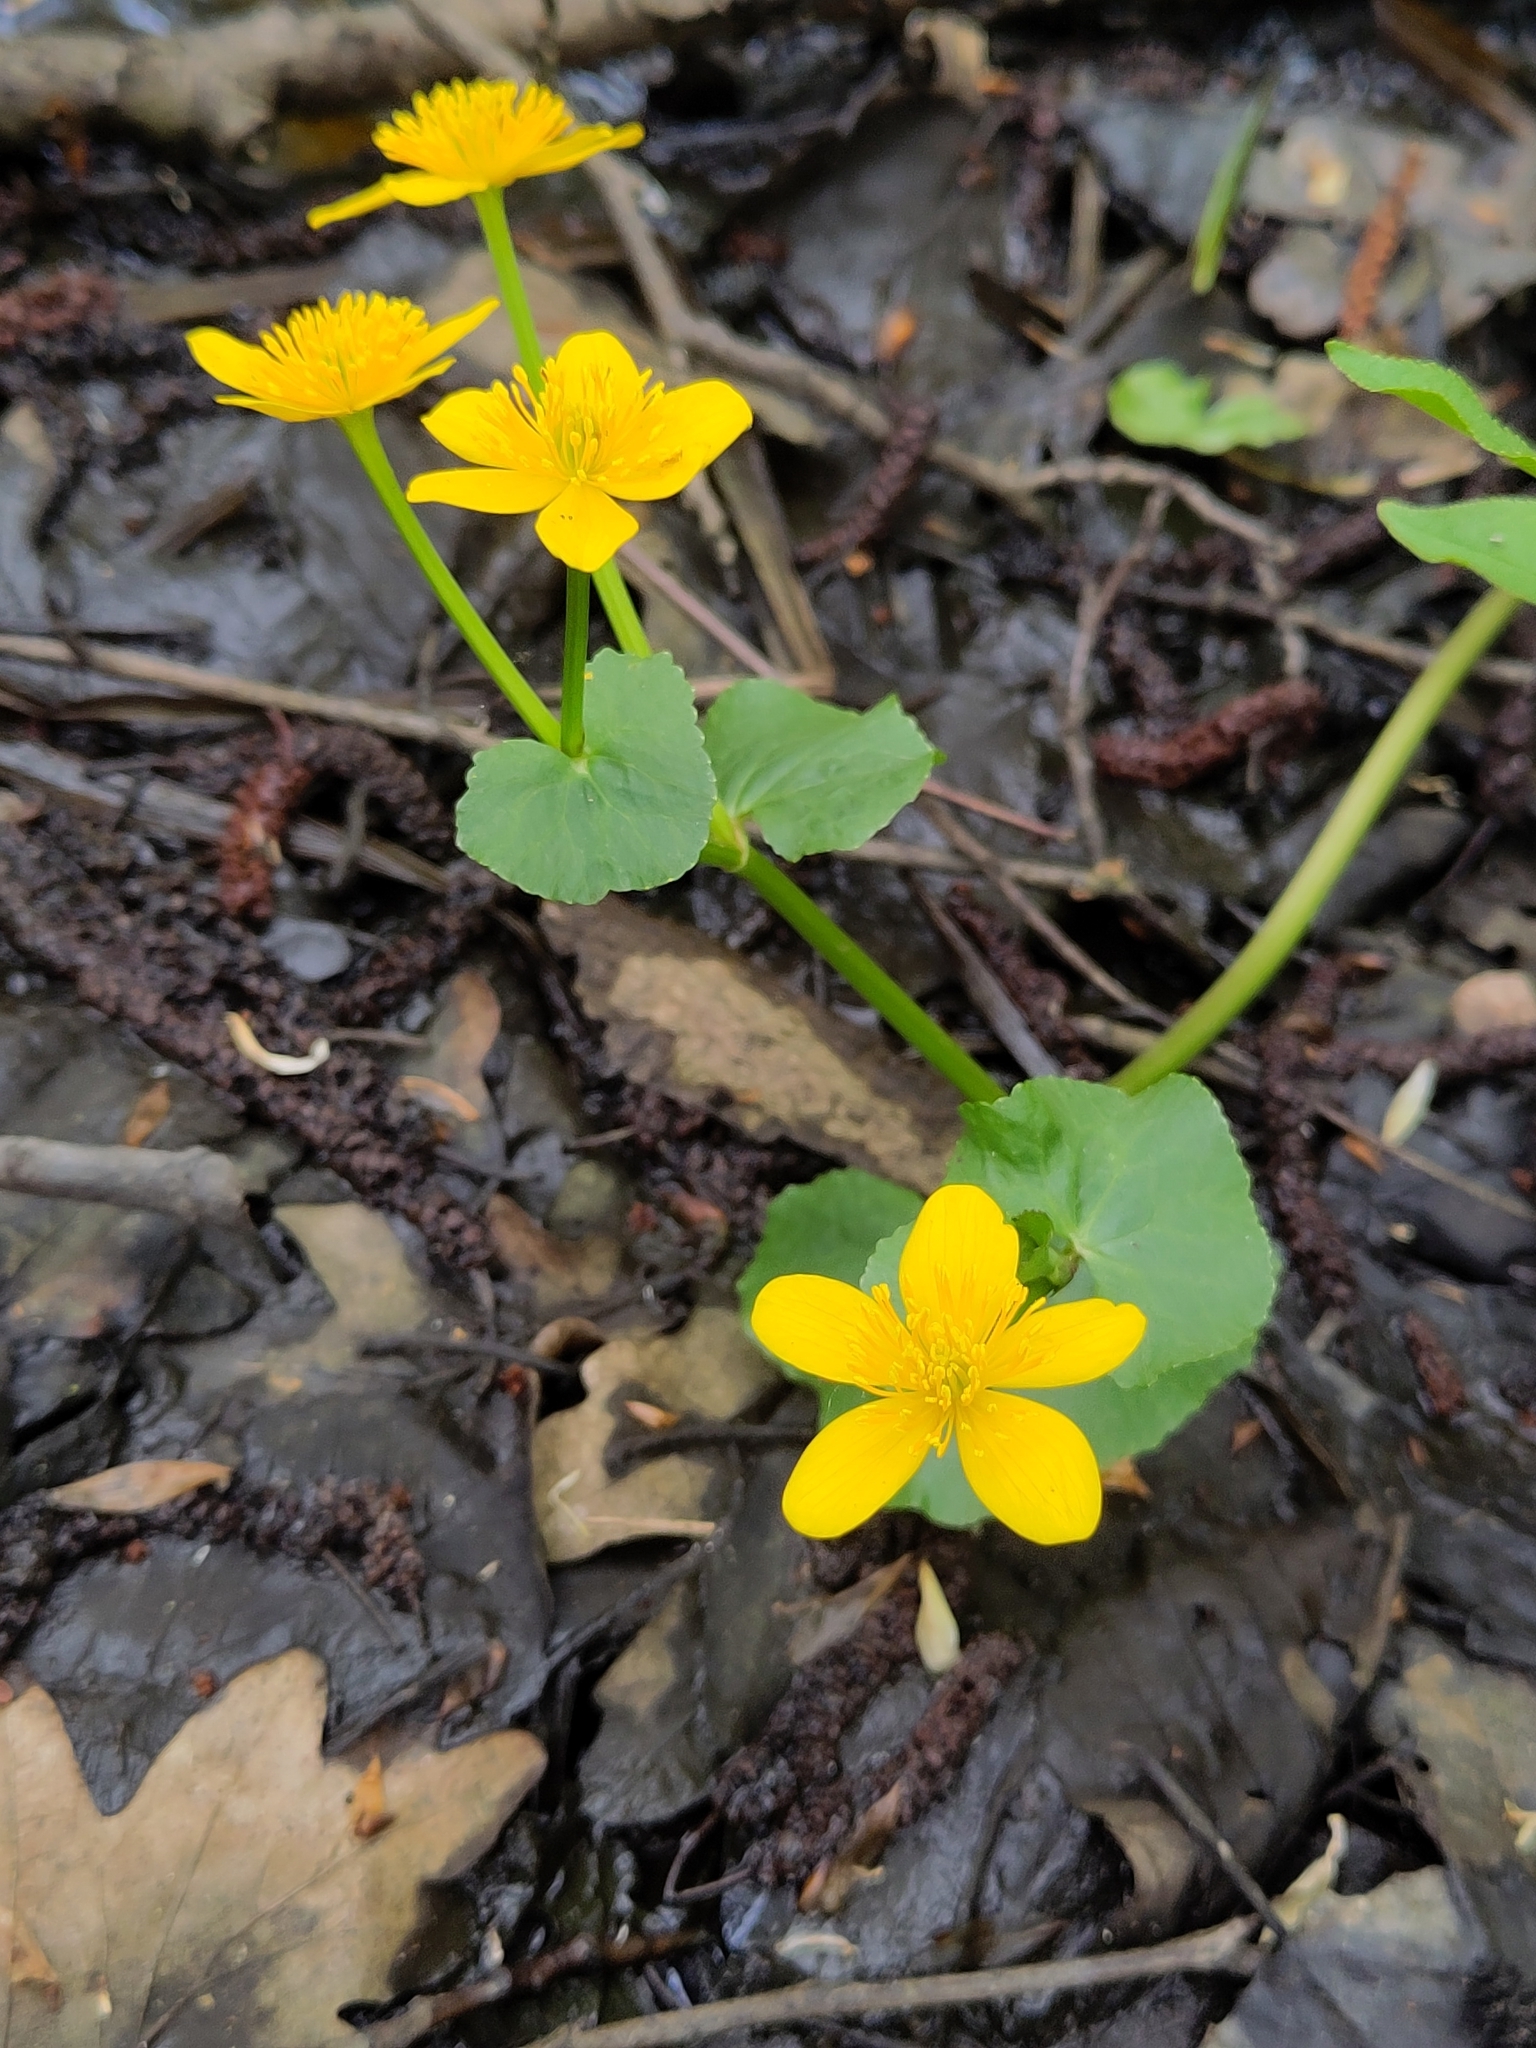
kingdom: Plantae
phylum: Tracheophyta
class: Magnoliopsida
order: Ranunculales
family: Ranunculaceae
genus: Caltha
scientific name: Caltha palustris
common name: Marsh marigold
